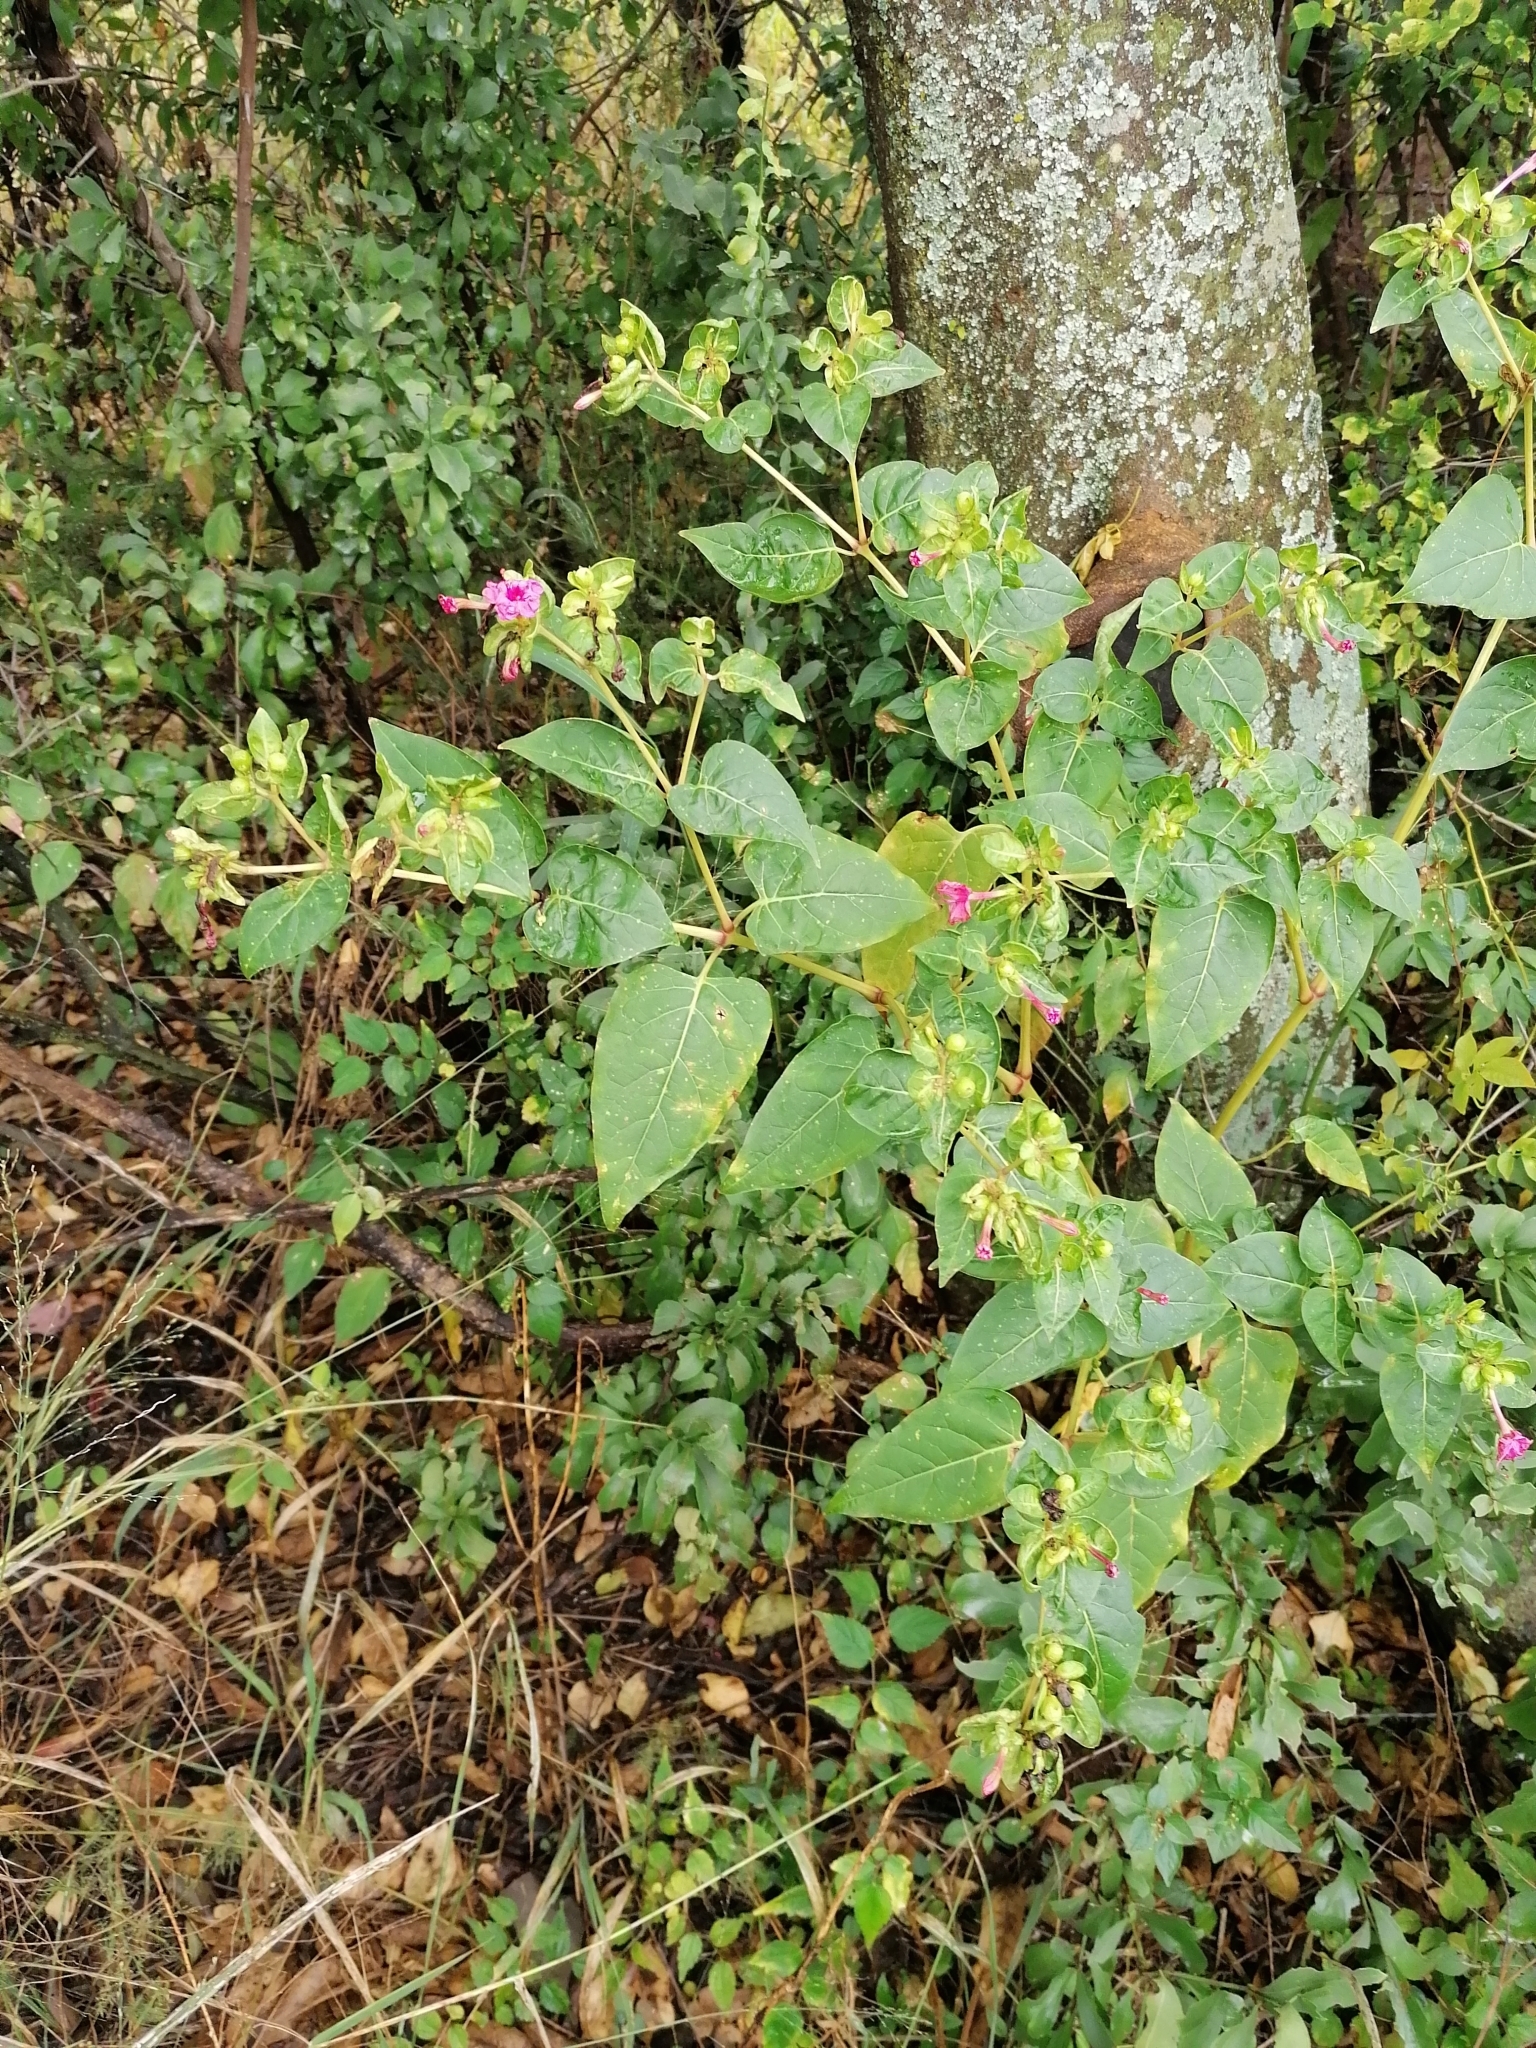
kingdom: Plantae
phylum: Tracheophyta
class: Magnoliopsida
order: Caryophyllales
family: Nyctaginaceae
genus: Mirabilis
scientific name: Mirabilis jalapa
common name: Marvel-of-peru
